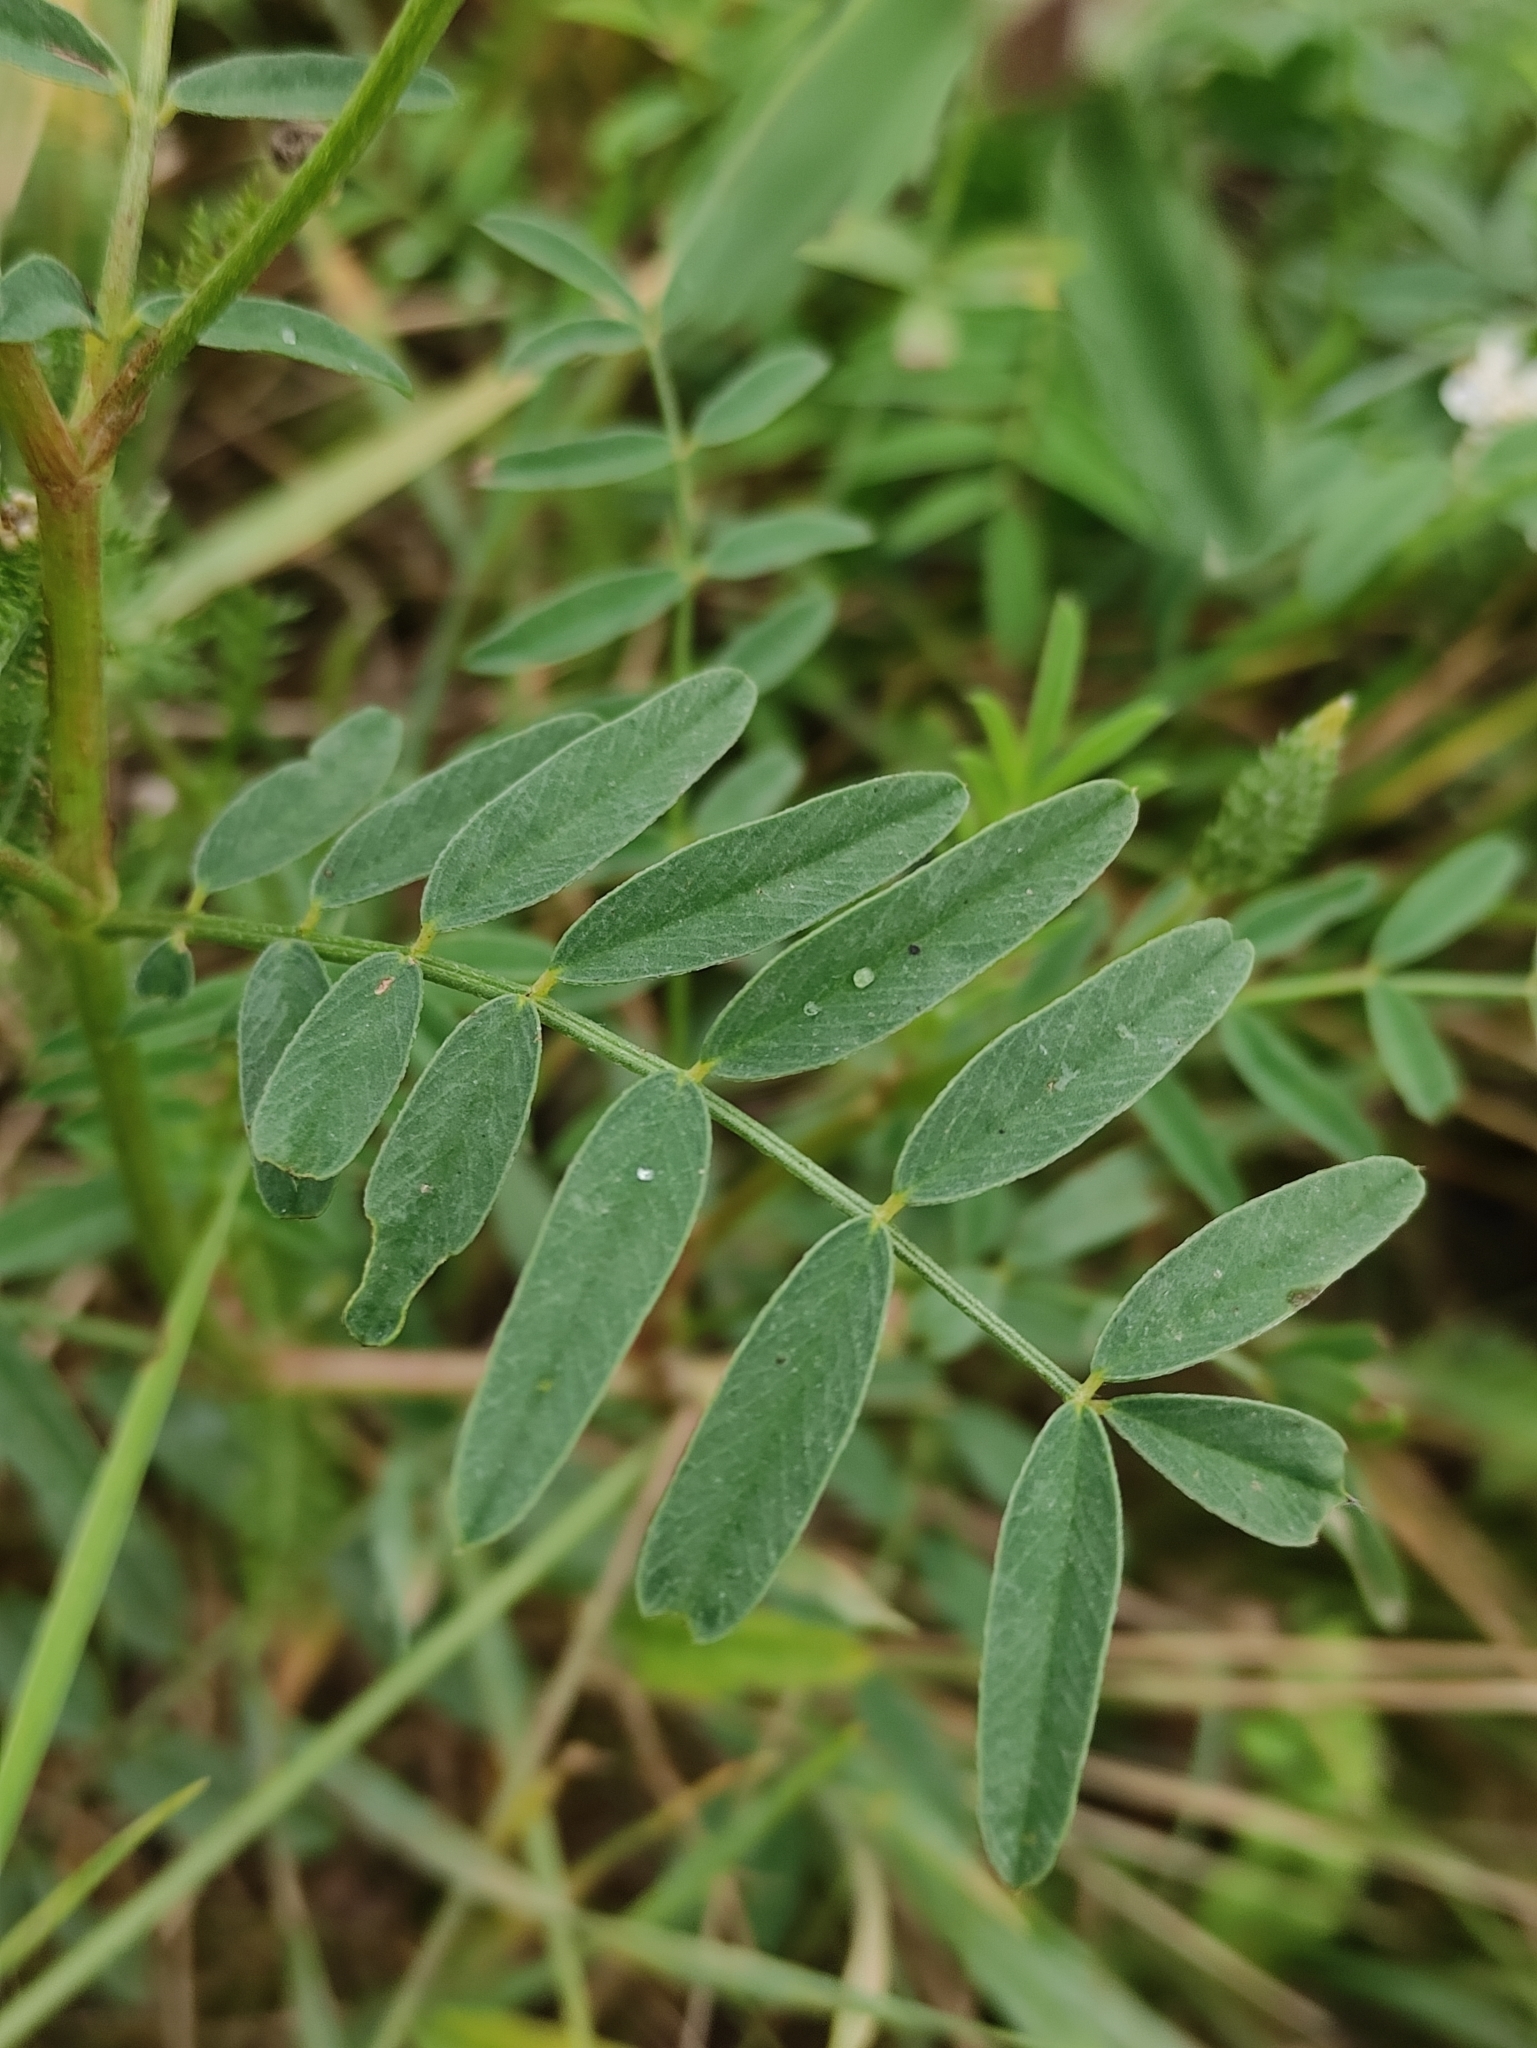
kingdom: Plantae
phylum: Tracheophyta
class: Magnoliopsida
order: Fabales
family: Fabaceae
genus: Onobrychis
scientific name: Onobrychis arenaria
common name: Sand esparcet
